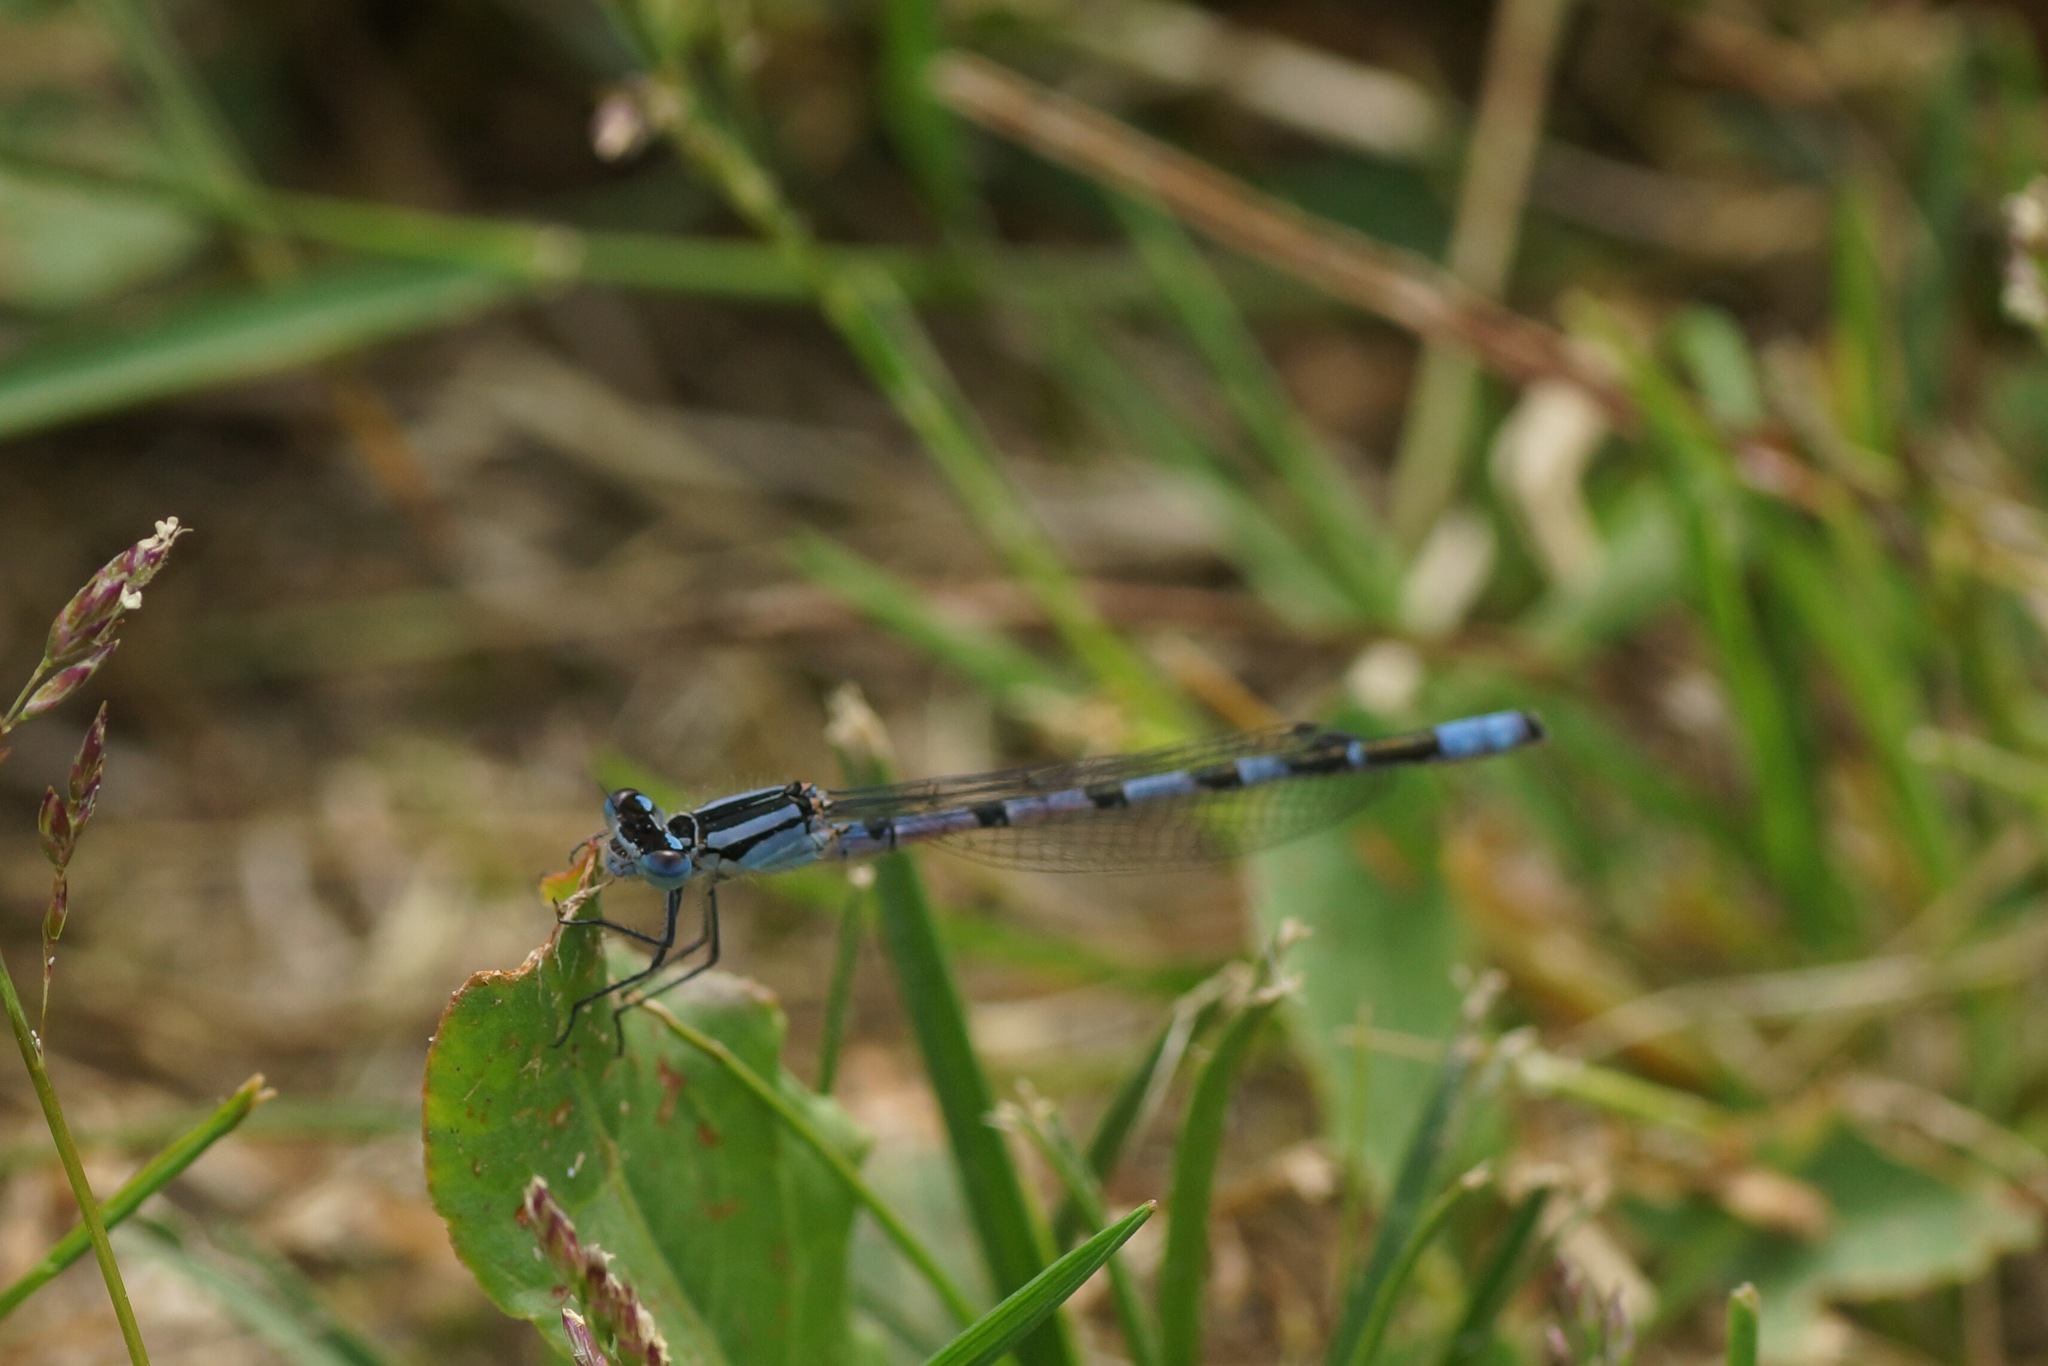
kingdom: Animalia
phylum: Arthropoda
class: Insecta
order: Odonata
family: Coenagrionidae
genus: Enallagma
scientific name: Enallagma cyathigerum
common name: Common blue damselfly
